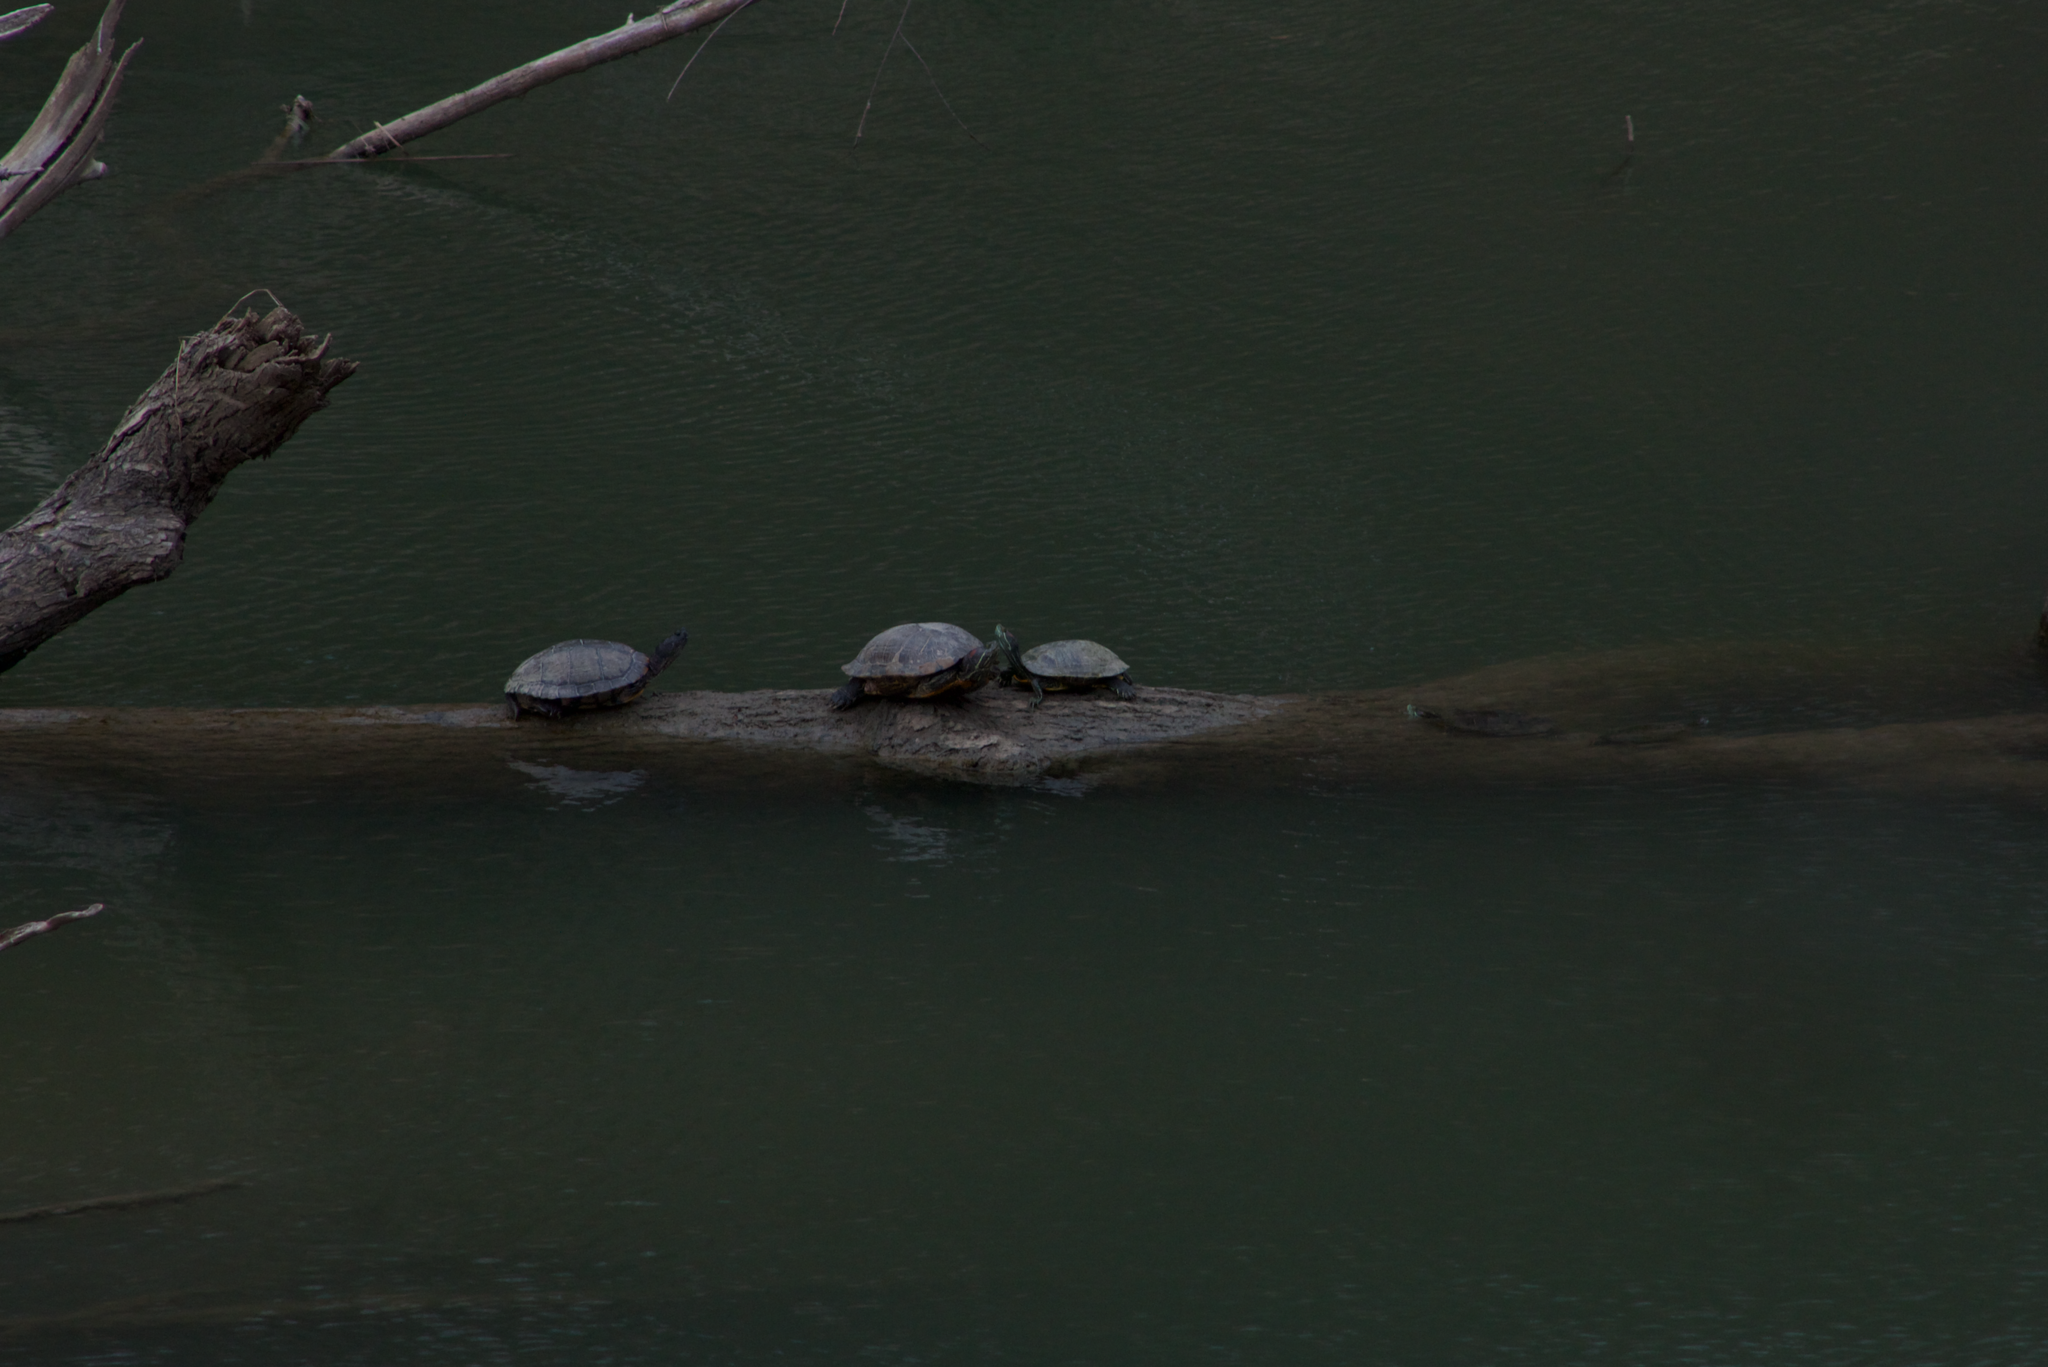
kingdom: Animalia
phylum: Chordata
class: Testudines
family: Emydidae
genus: Trachemys
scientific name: Trachemys scripta
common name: Slider
